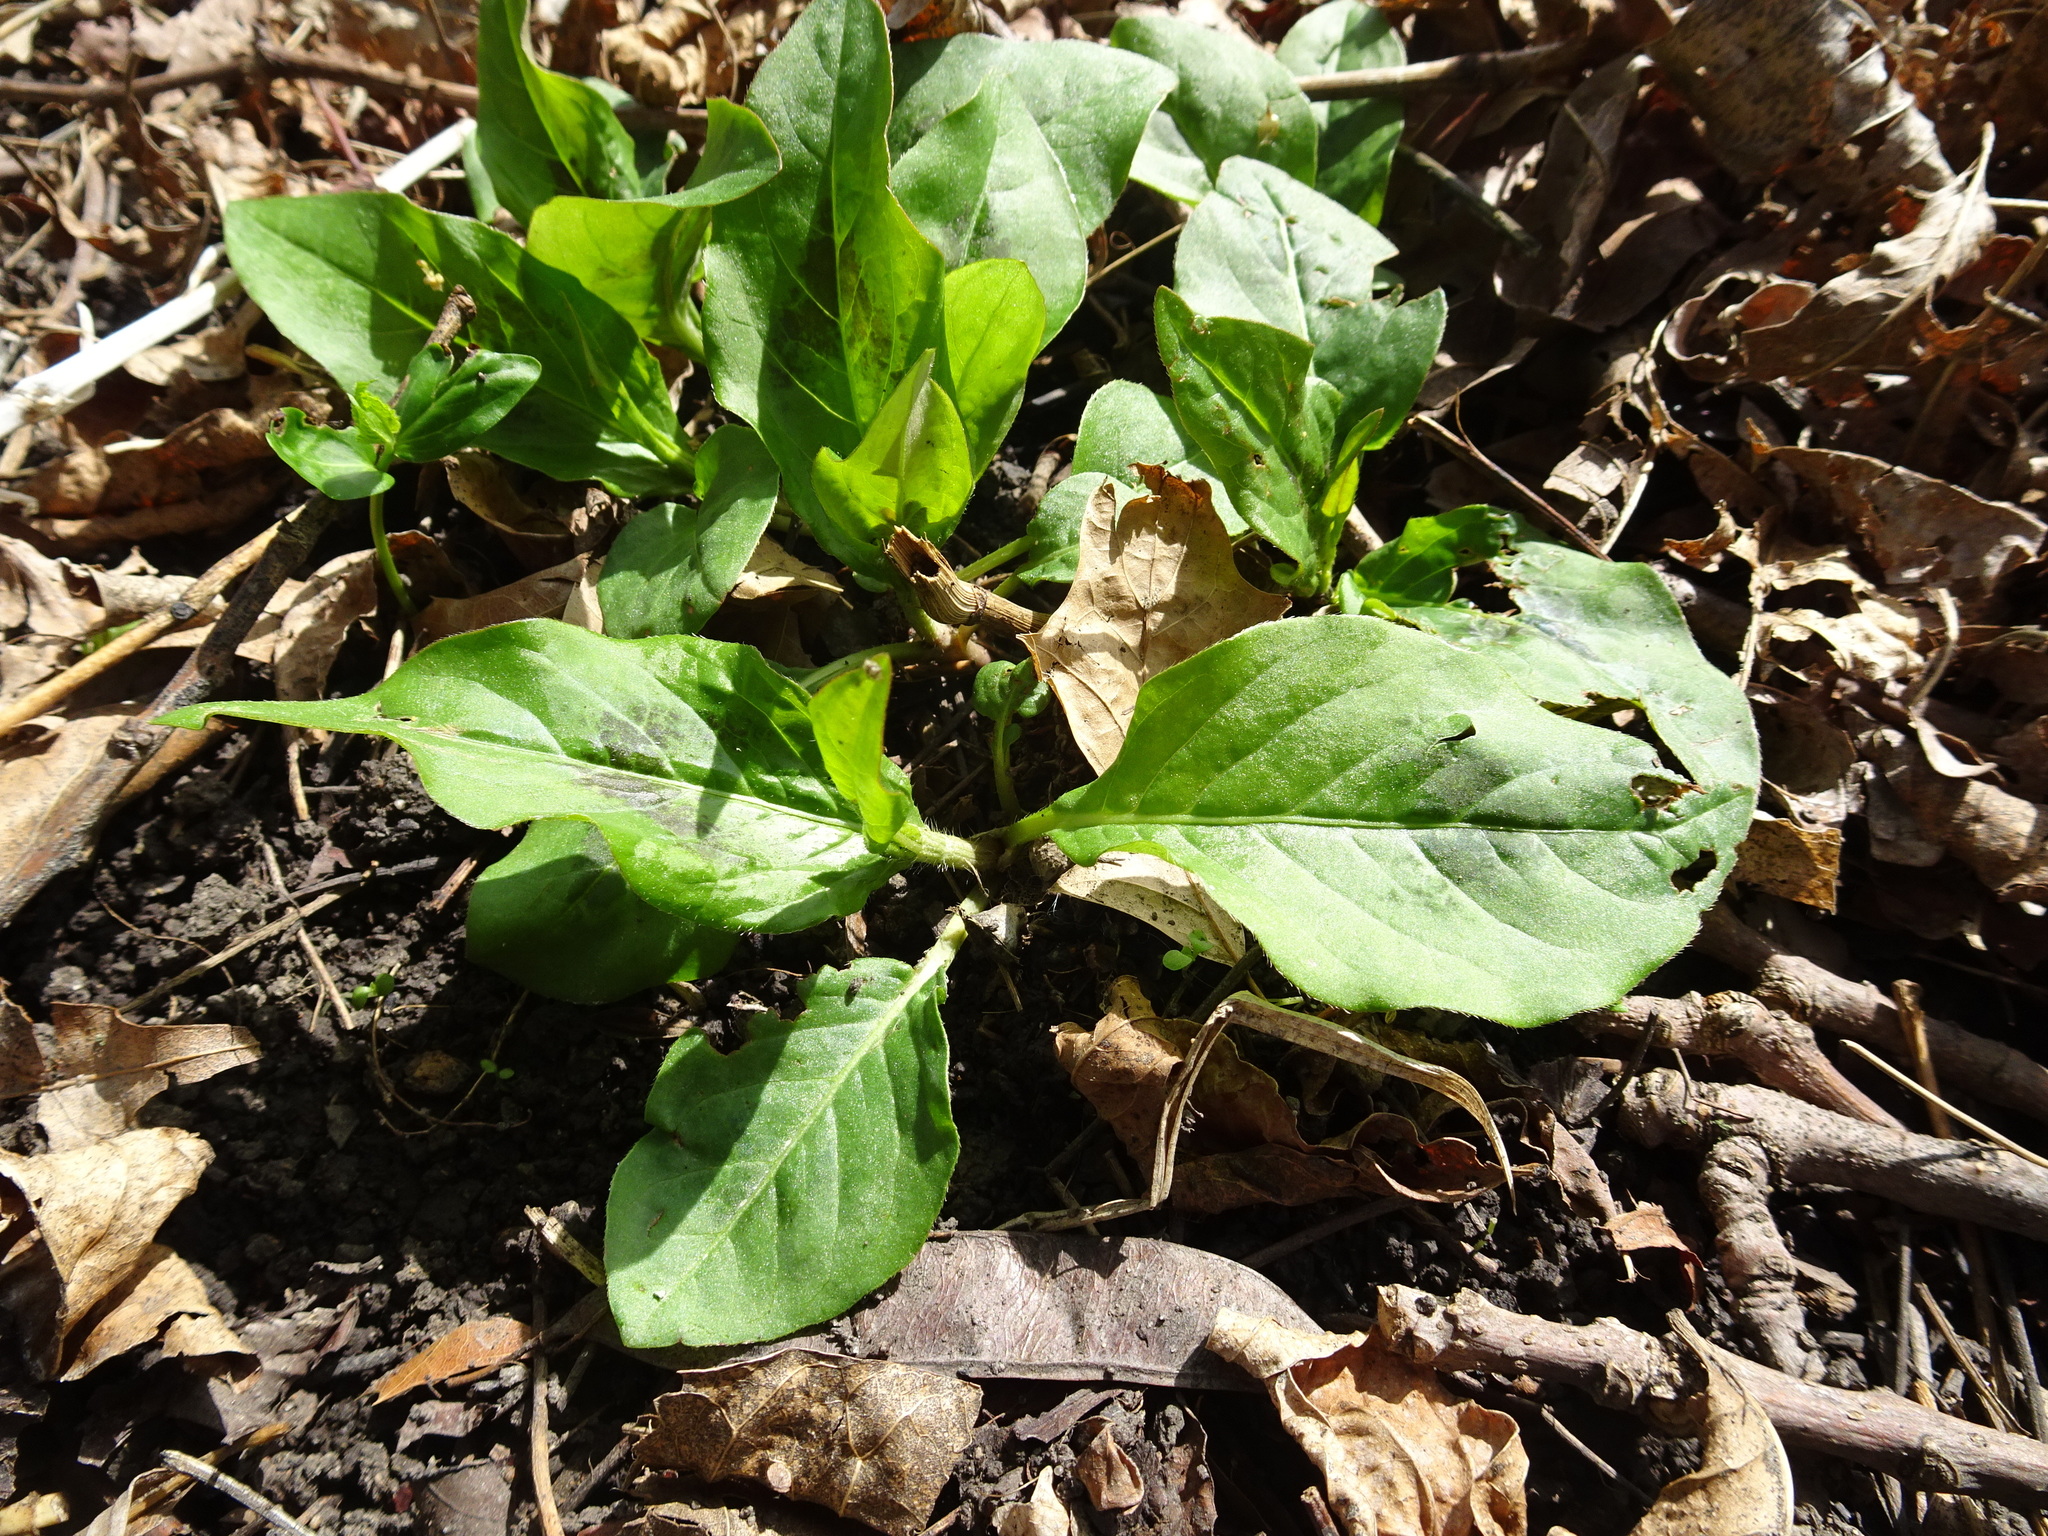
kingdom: Plantae
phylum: Tracheophyta
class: Magnoliopsida
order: Caryophyllales
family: Polygonaceae
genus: Persicaria
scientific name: Persicaria virginiana
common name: Jumpseed
